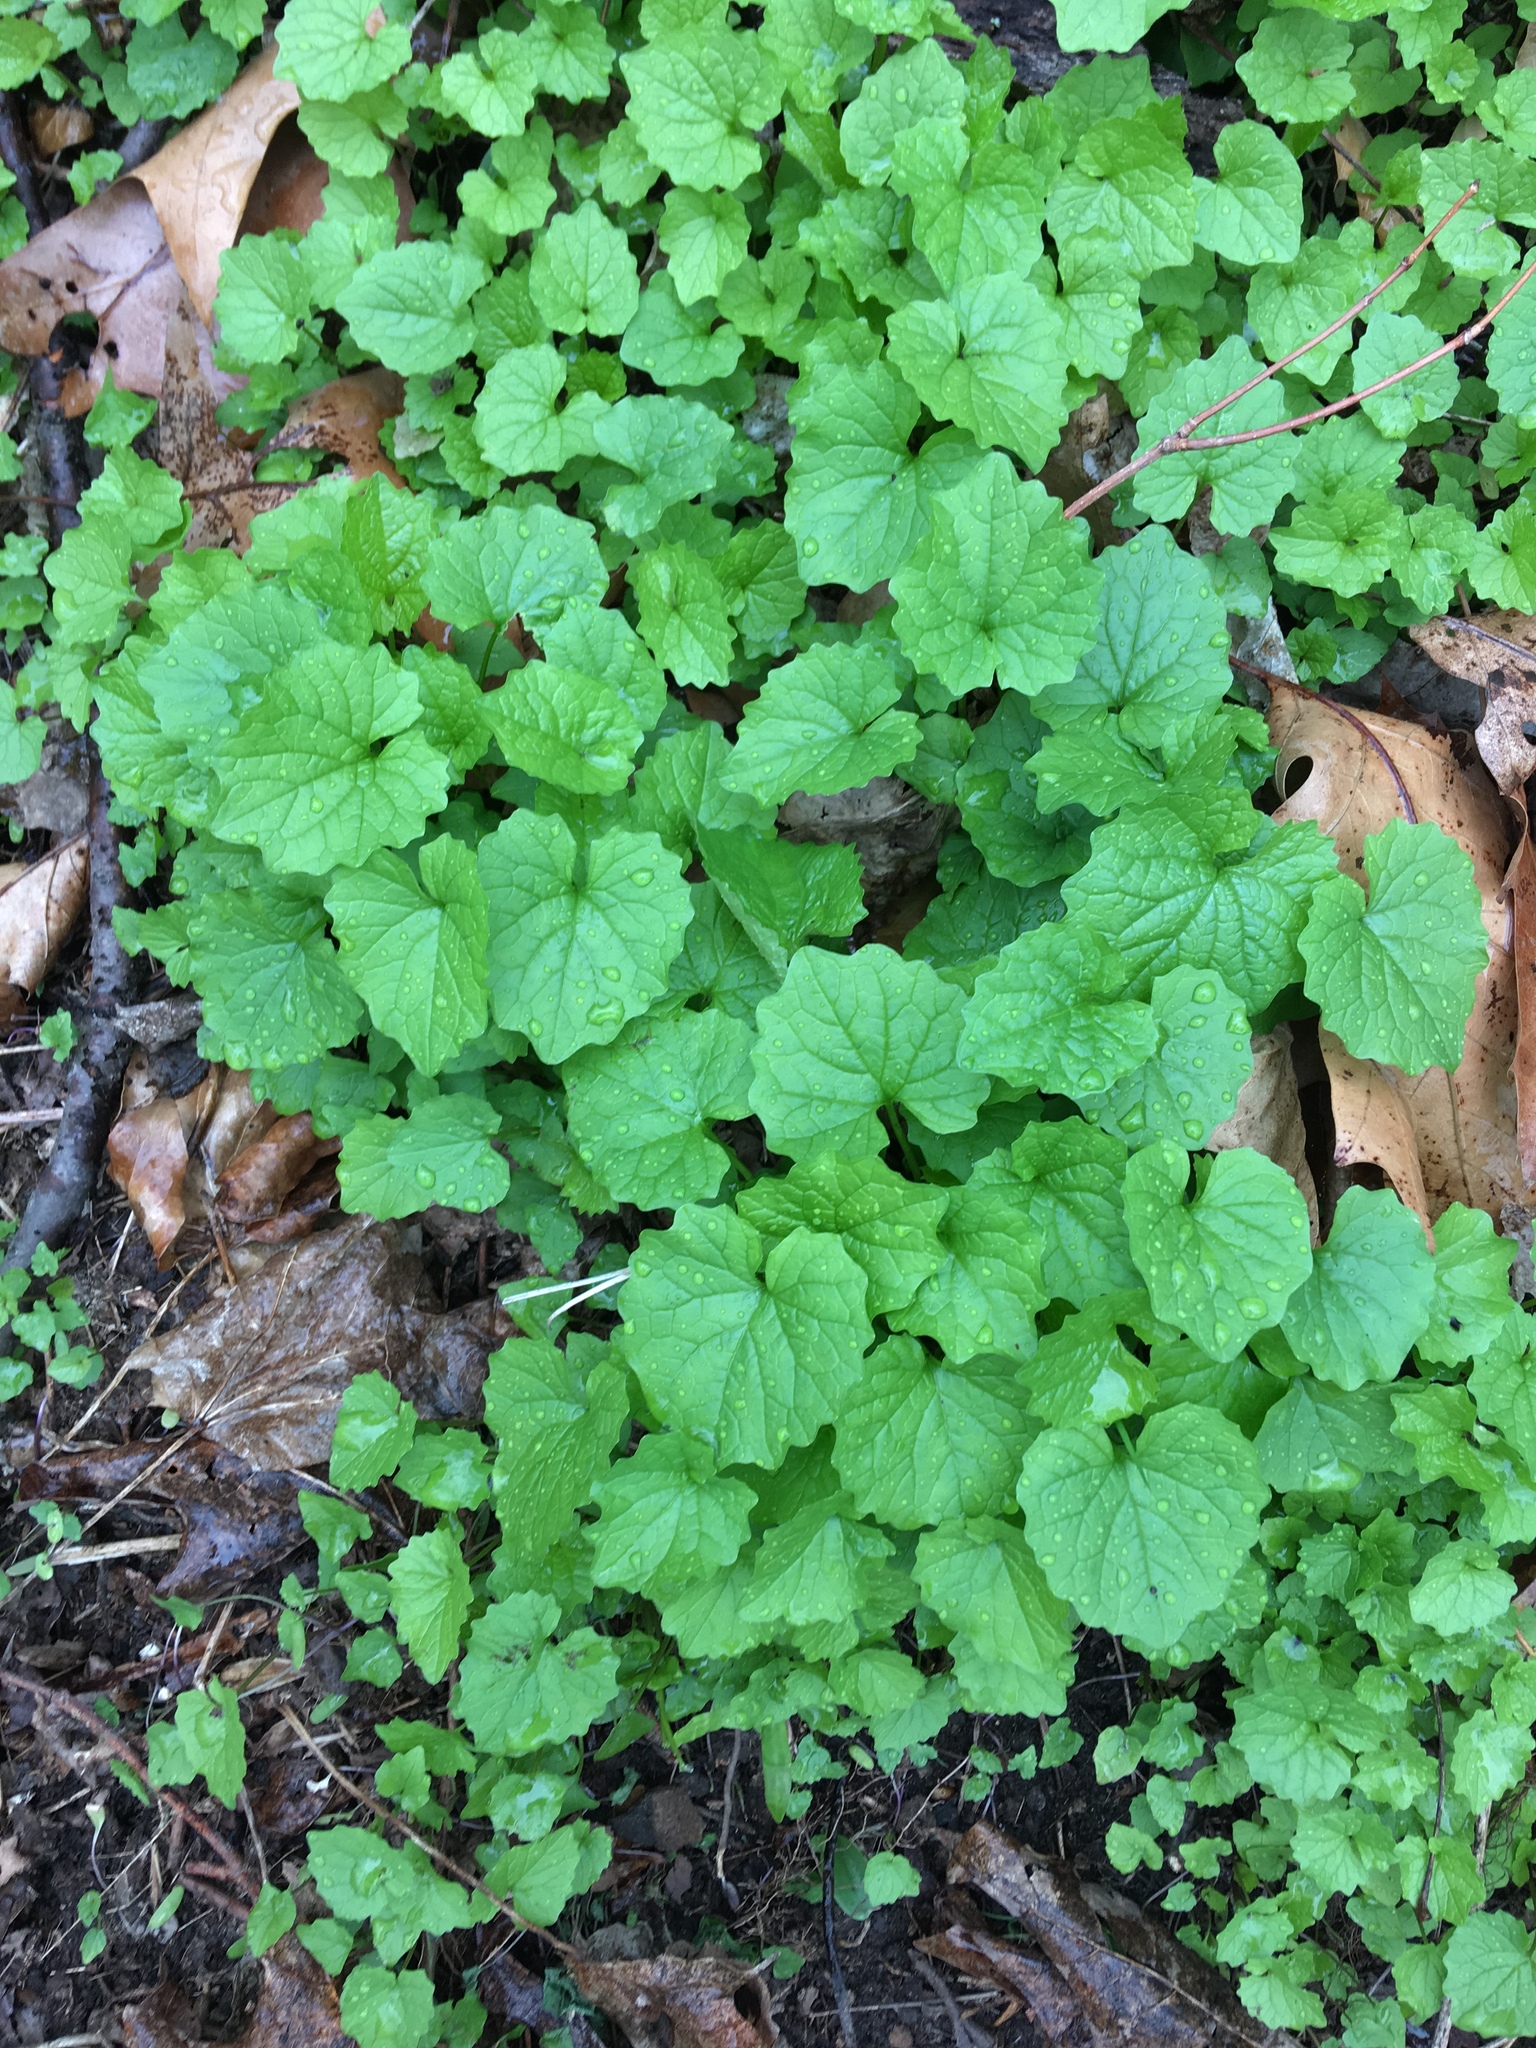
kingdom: Plantae
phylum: Tracheophyta
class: Magnoliopsida
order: Brassicales
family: Brassicaceae
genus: Alliaria
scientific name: Alliaria petiolata
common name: Garlic mustard
